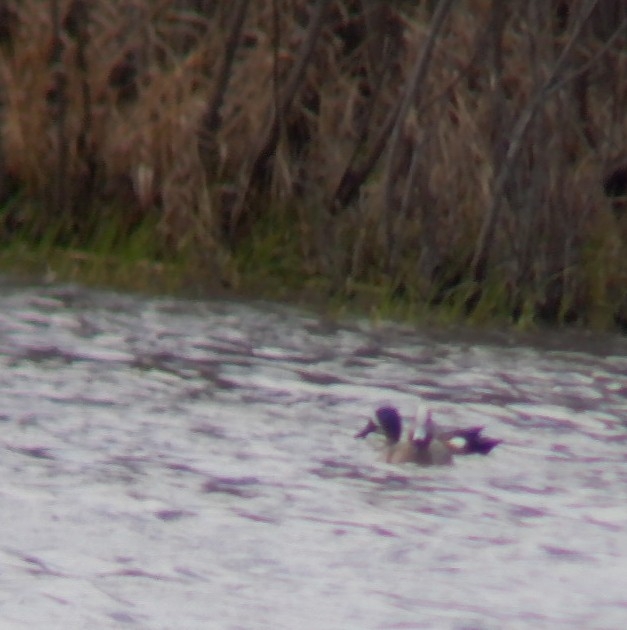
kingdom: Animalia
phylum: Chordata
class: Aves
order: Anseriformes
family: Anatidae
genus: Spatula
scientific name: Spatula discors
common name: Blue-winged teal
